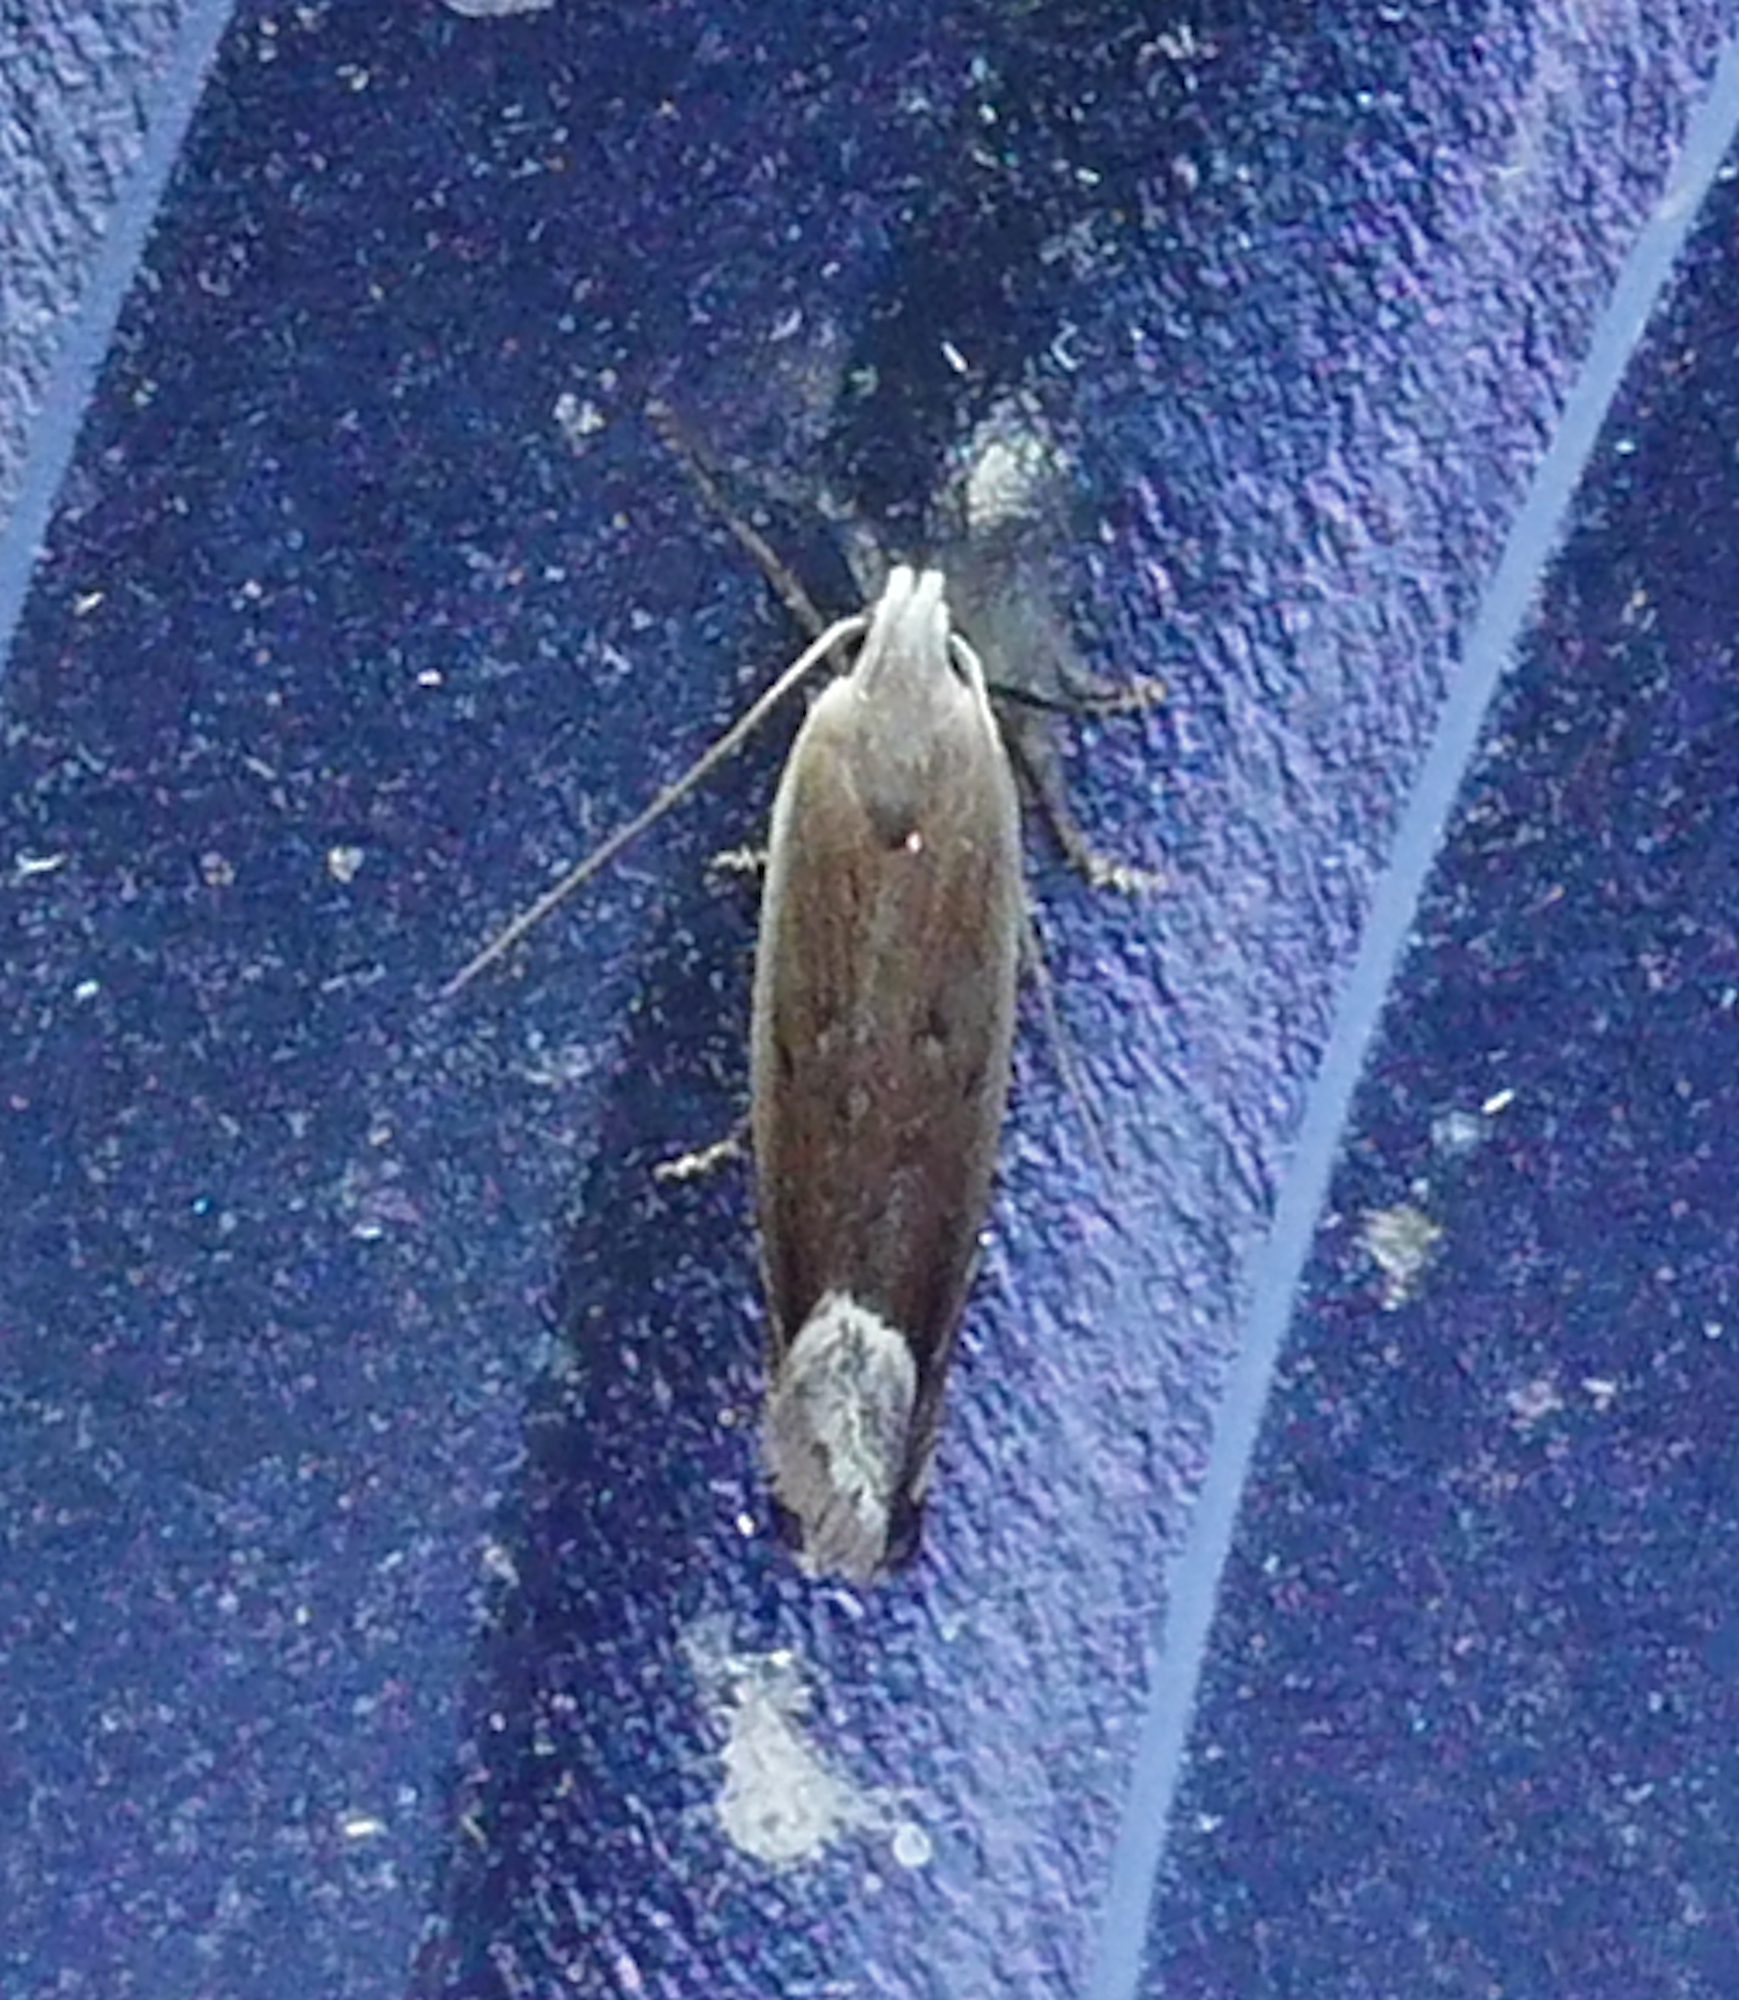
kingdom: Animalia
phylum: Arthropoda
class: Insecta
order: Lepidoptera
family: Gelechiidae
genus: Anacampsis
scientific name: Anacampsis paltodoriella
